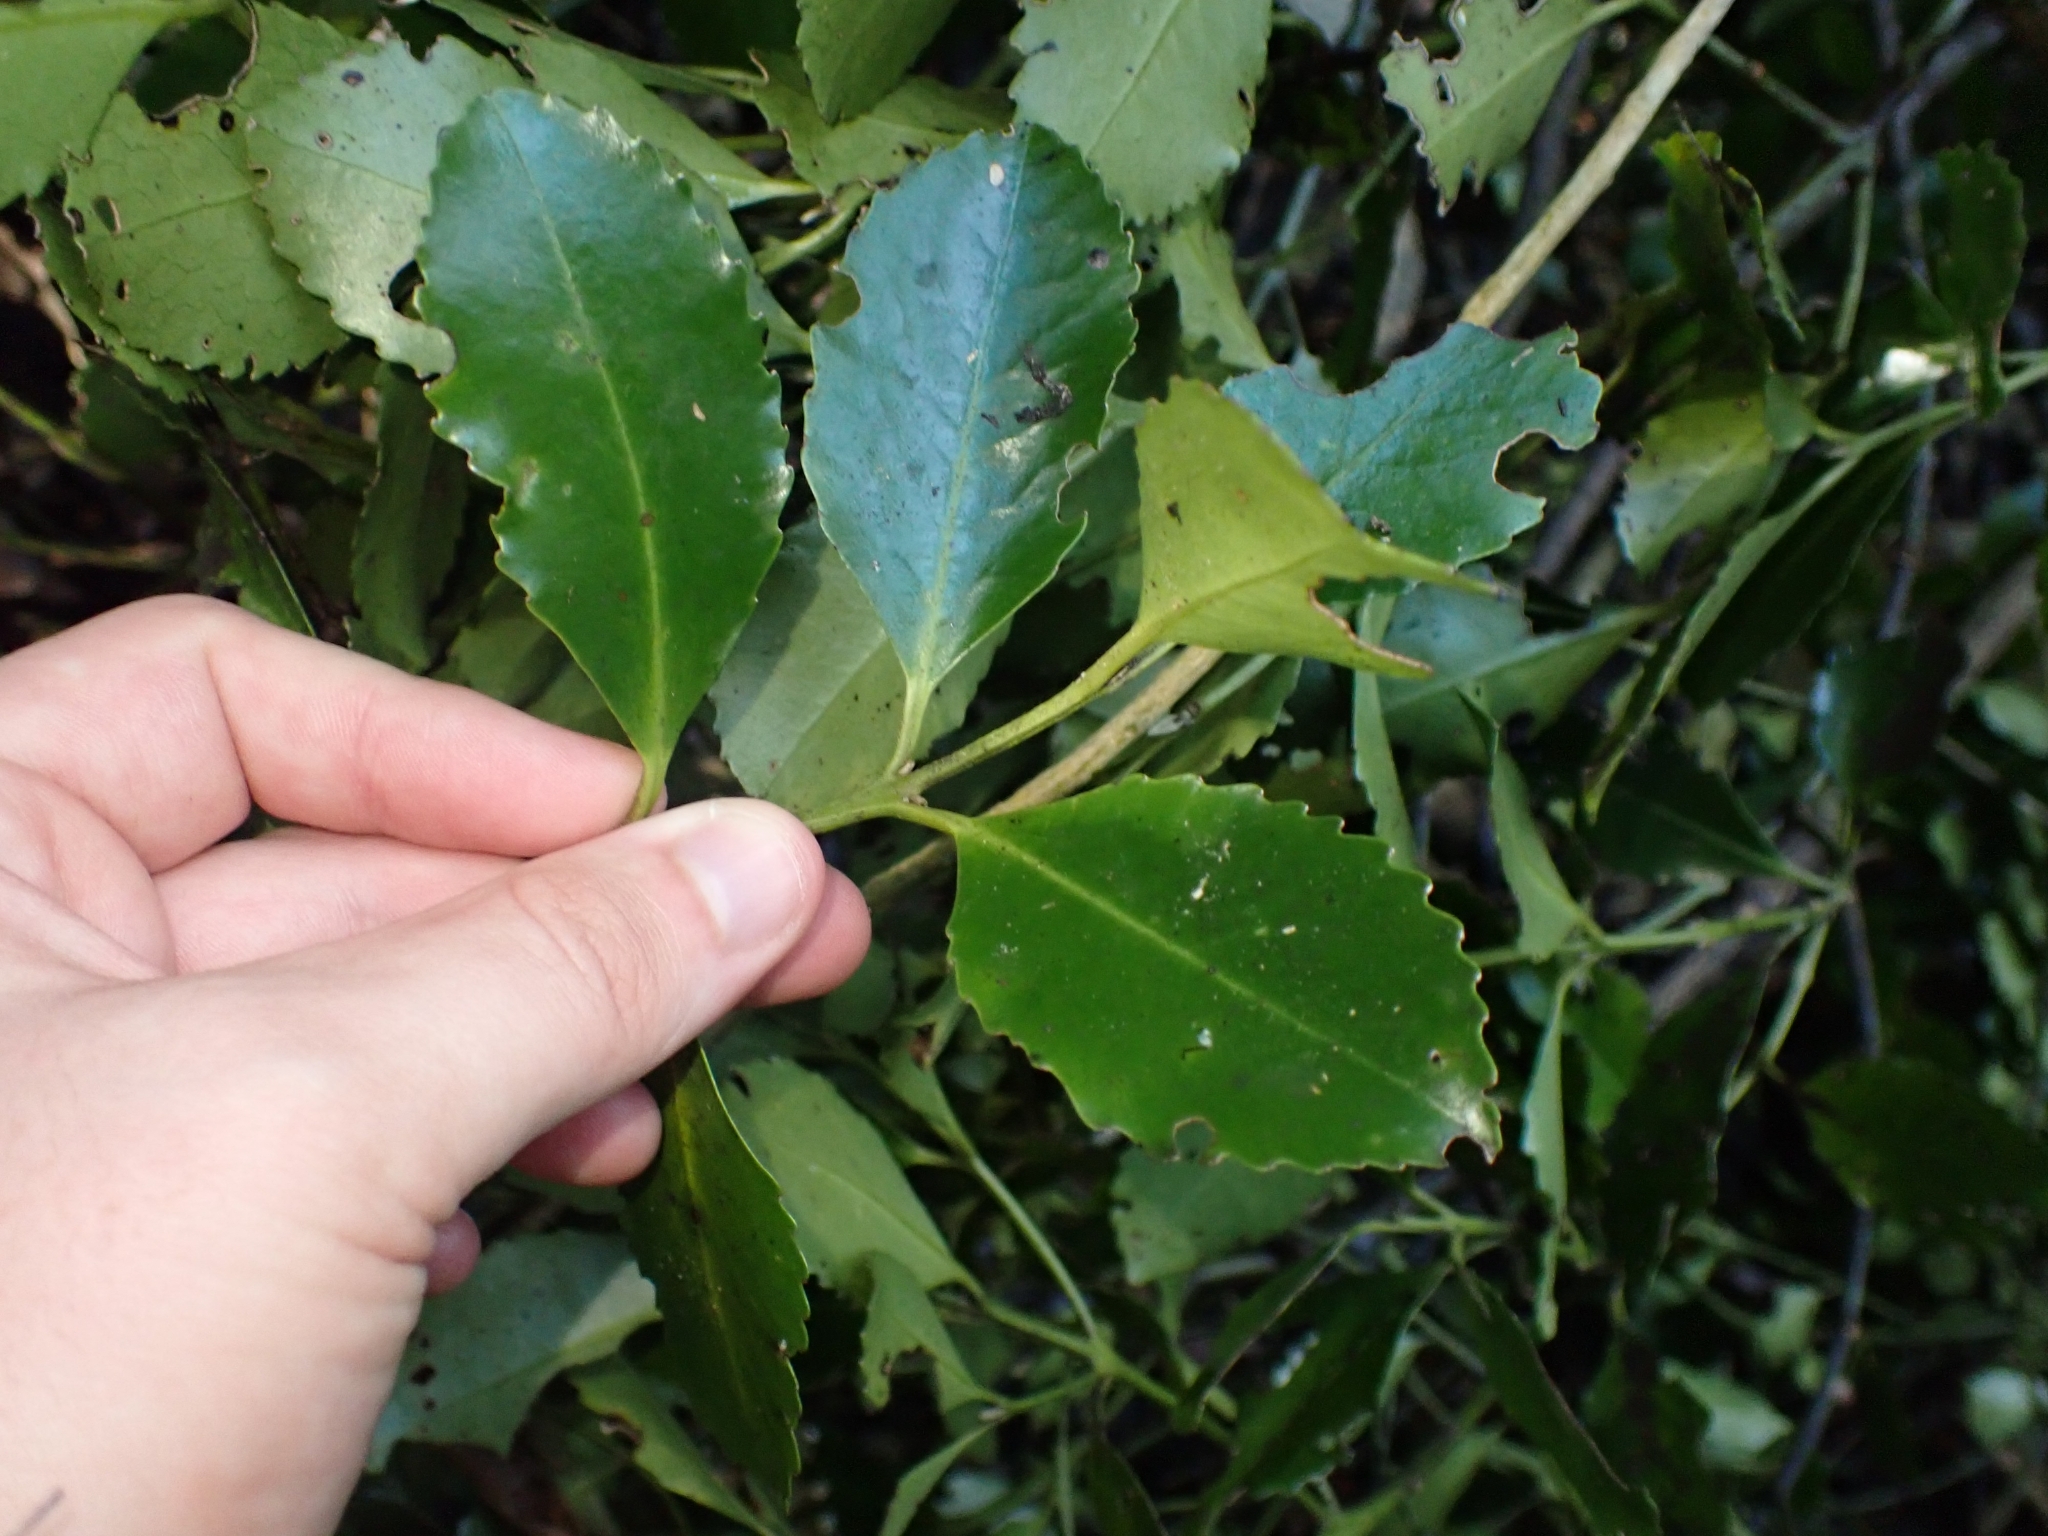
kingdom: Plantae
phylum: Tracheophyta
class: Magnoliopsida
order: Laurales
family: Atherospermataceae
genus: Laurelia
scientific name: Laurelia novae-zelandiae
